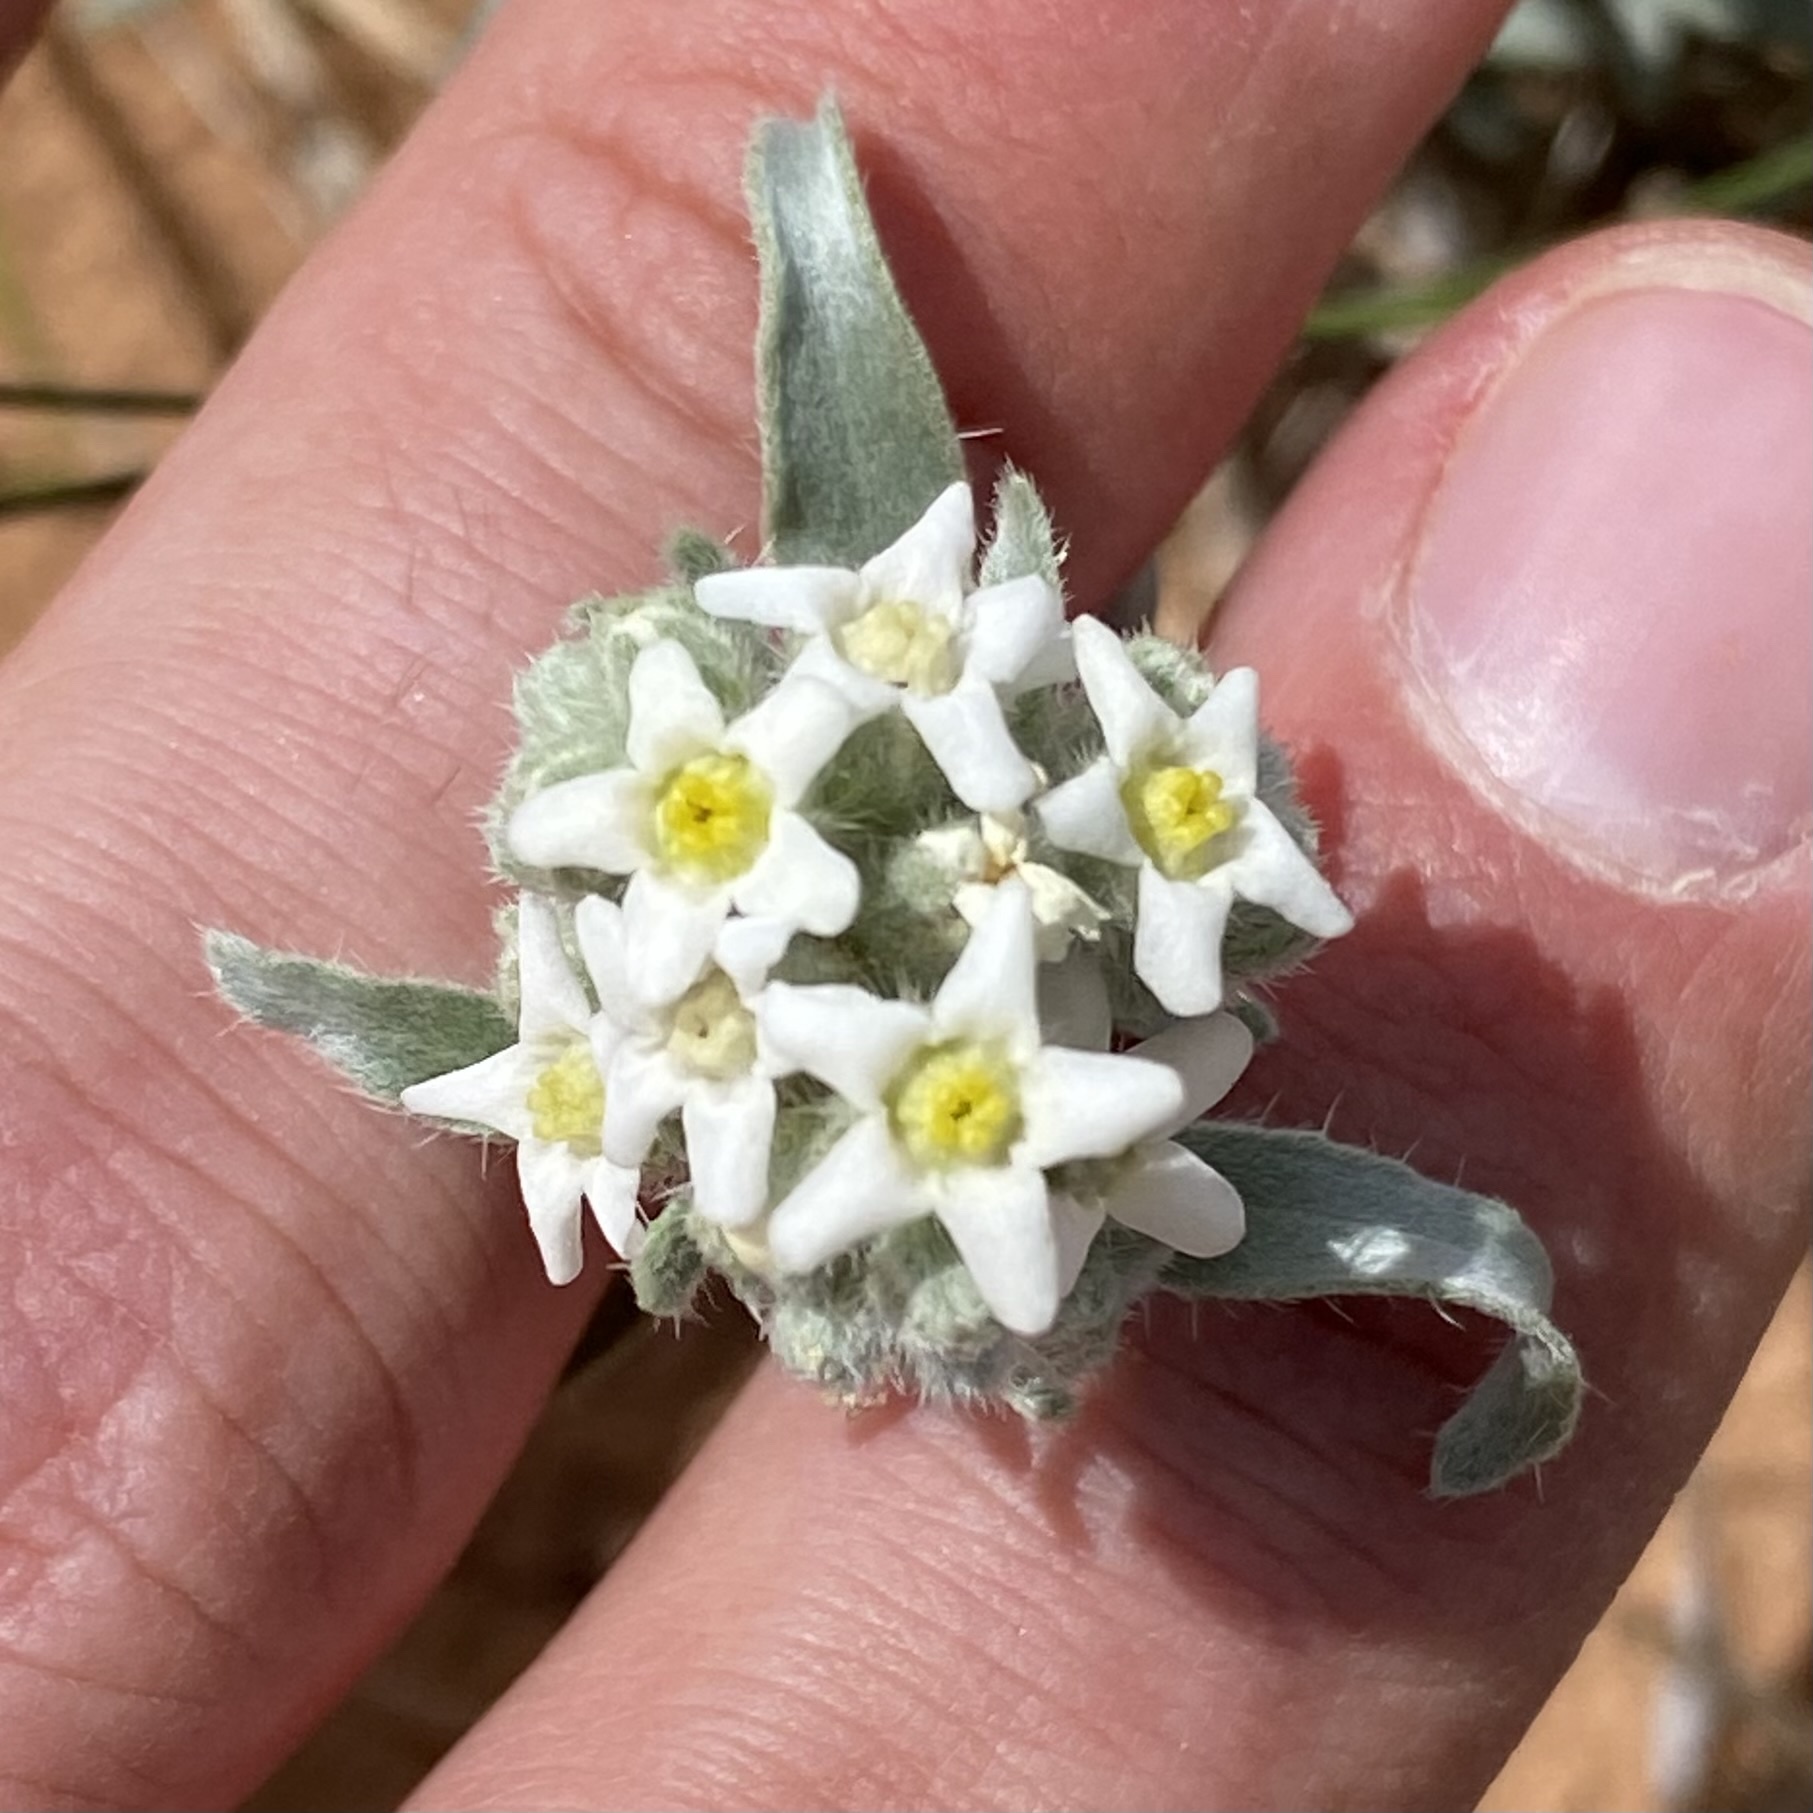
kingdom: Plantae
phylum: Tracheophyta
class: Magnoliopsida
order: Boraginales
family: Boraginaceae
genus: Oreocarya
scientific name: Oreocarya suffruticosa
